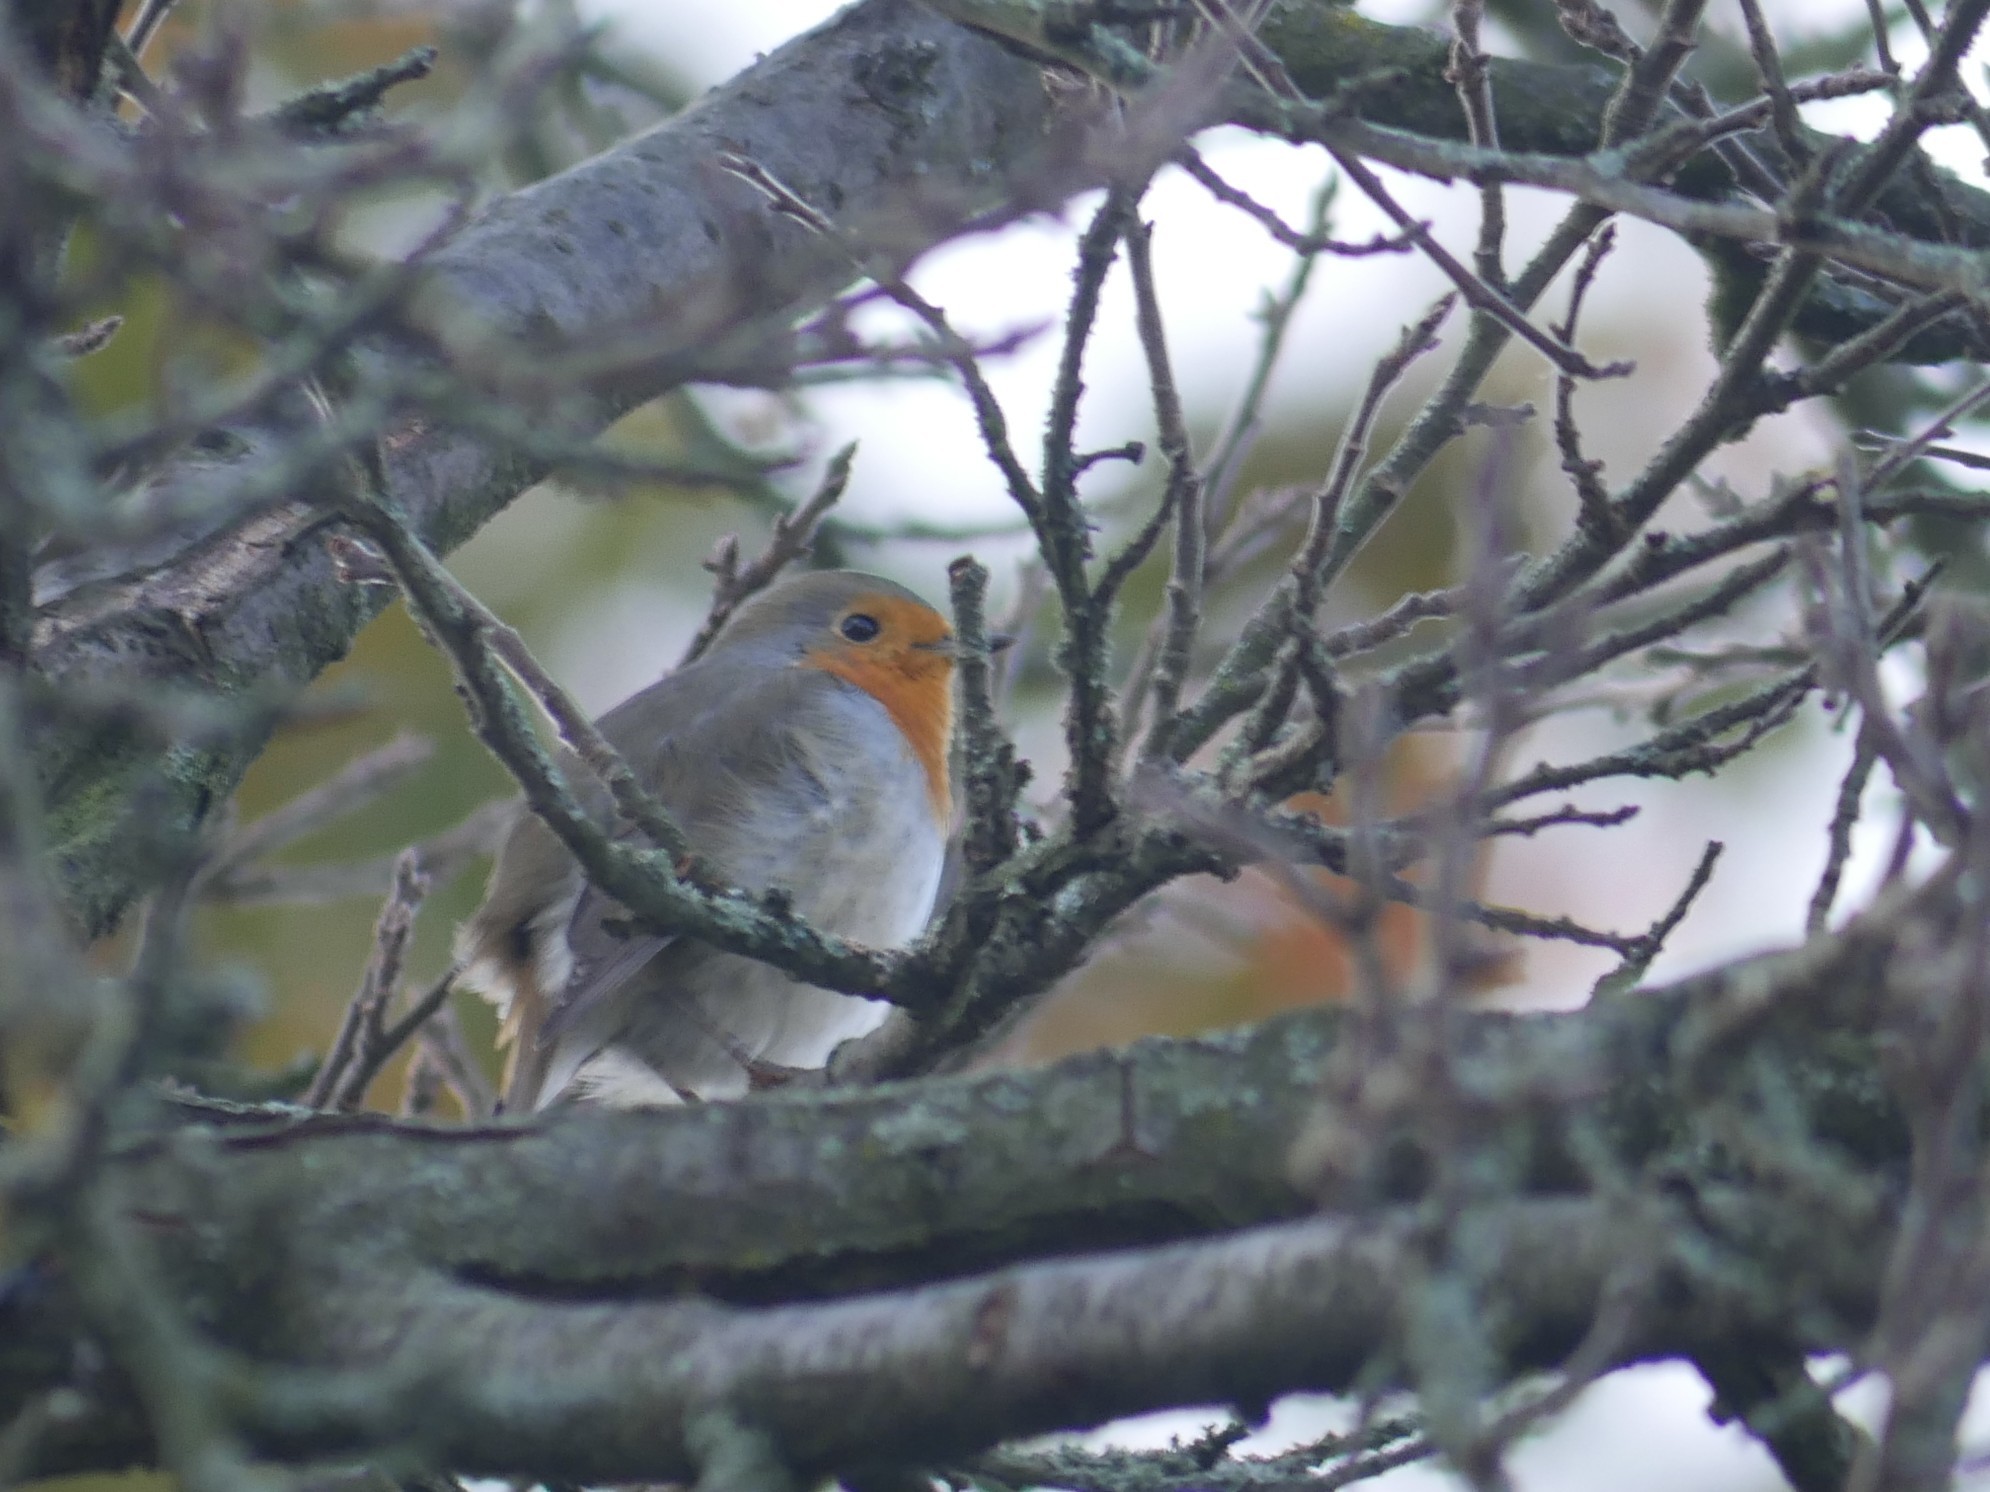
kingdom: Animalia
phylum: Chordata
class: Aves
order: Passeriformes
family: Muscicapidae
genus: Erithacus
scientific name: Erithacus rubecula
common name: European robin
